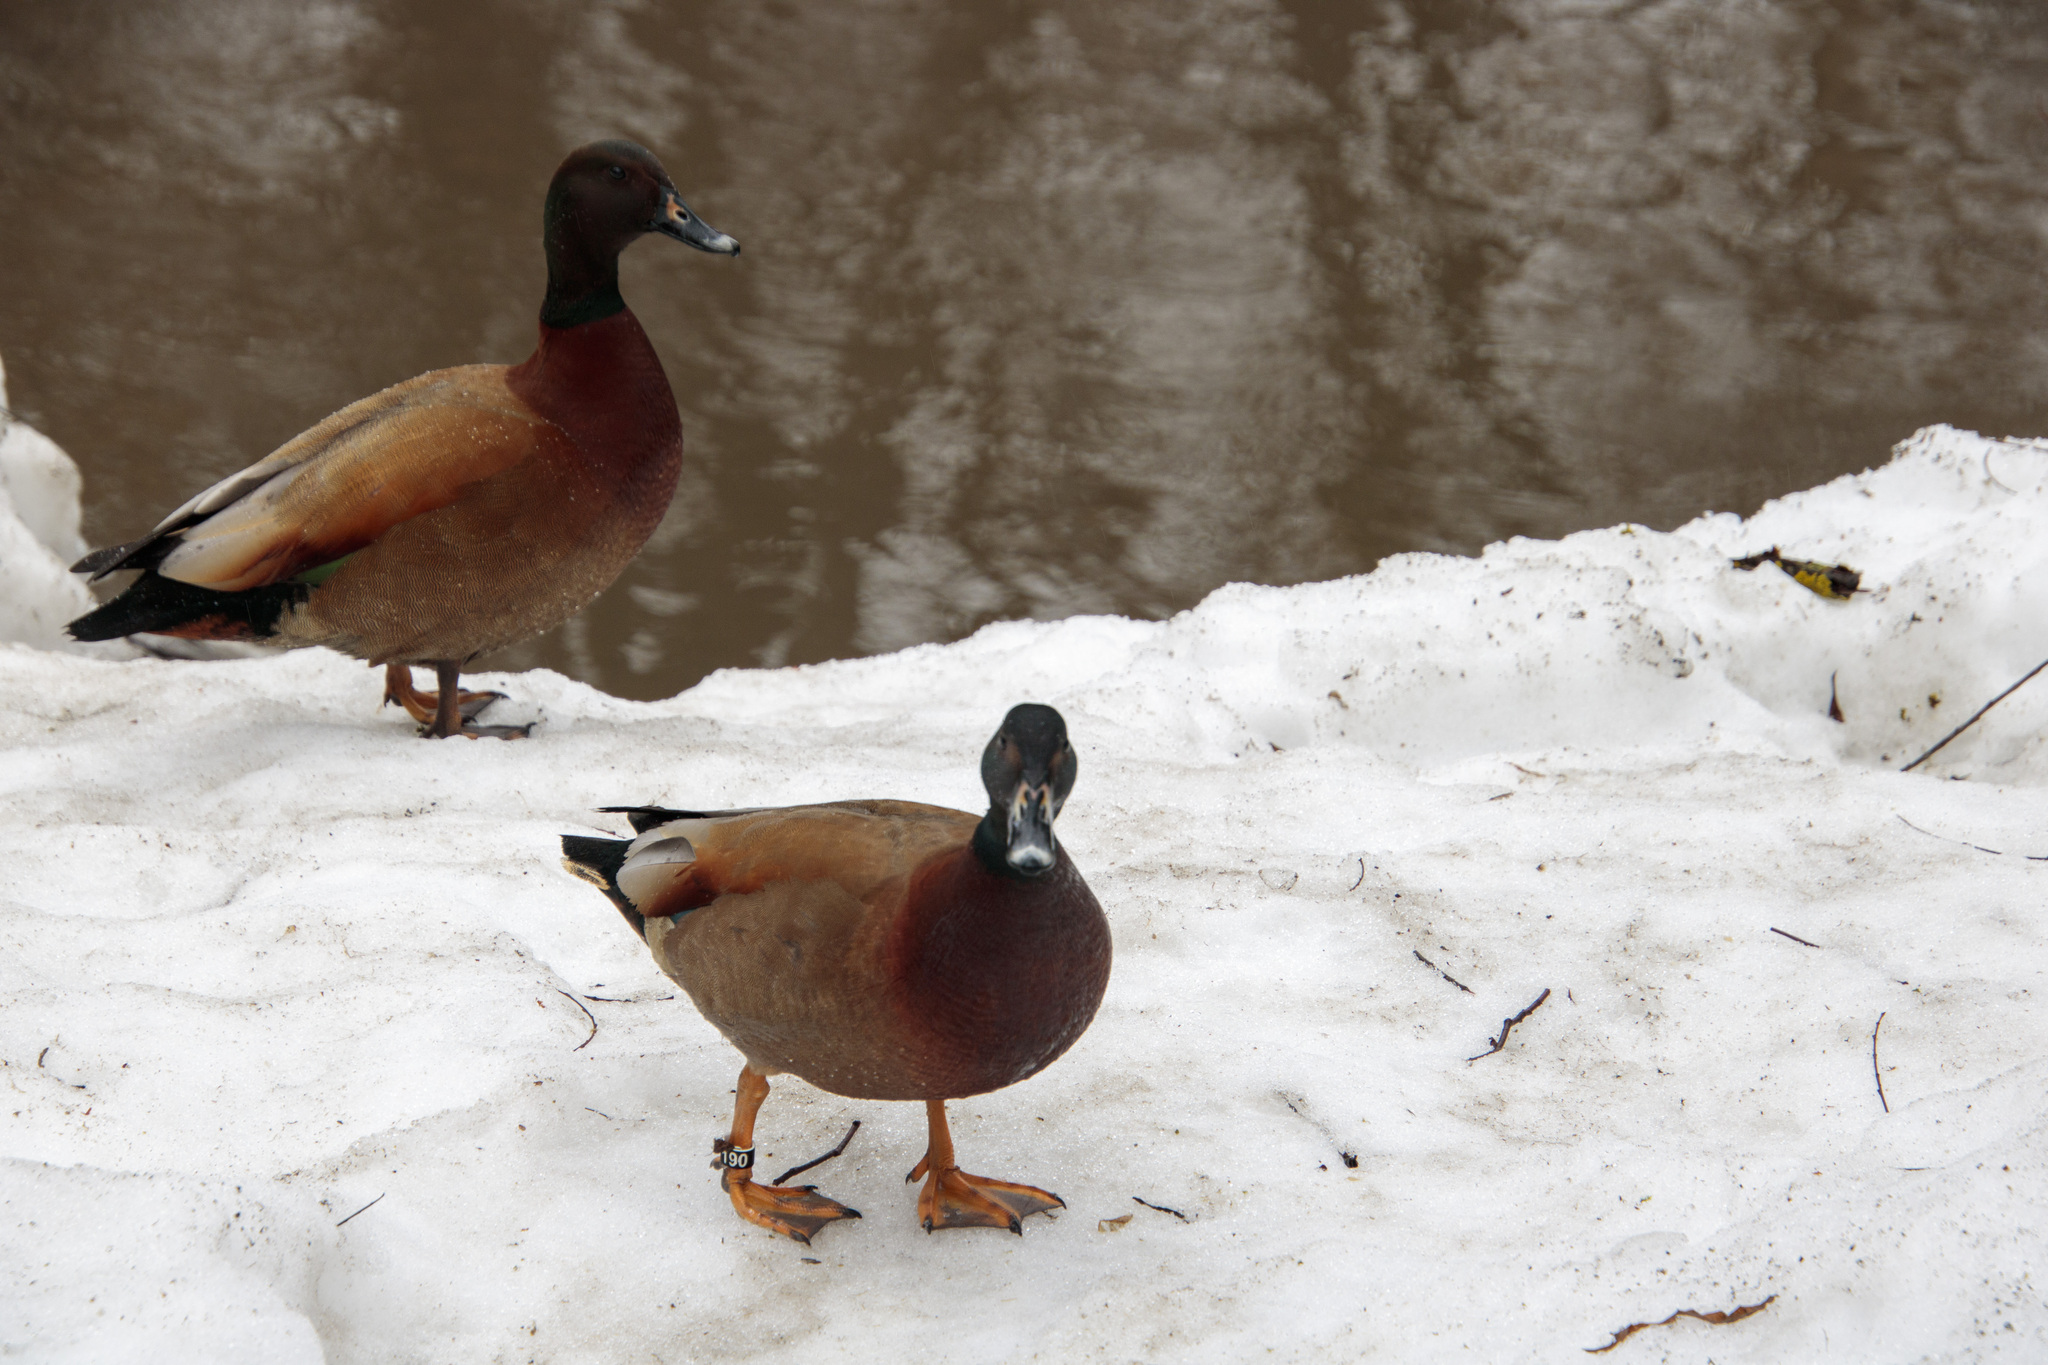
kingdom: Animalia
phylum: Chordata
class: Aves
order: Anseriformes
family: Anatidae
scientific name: Anatidae
